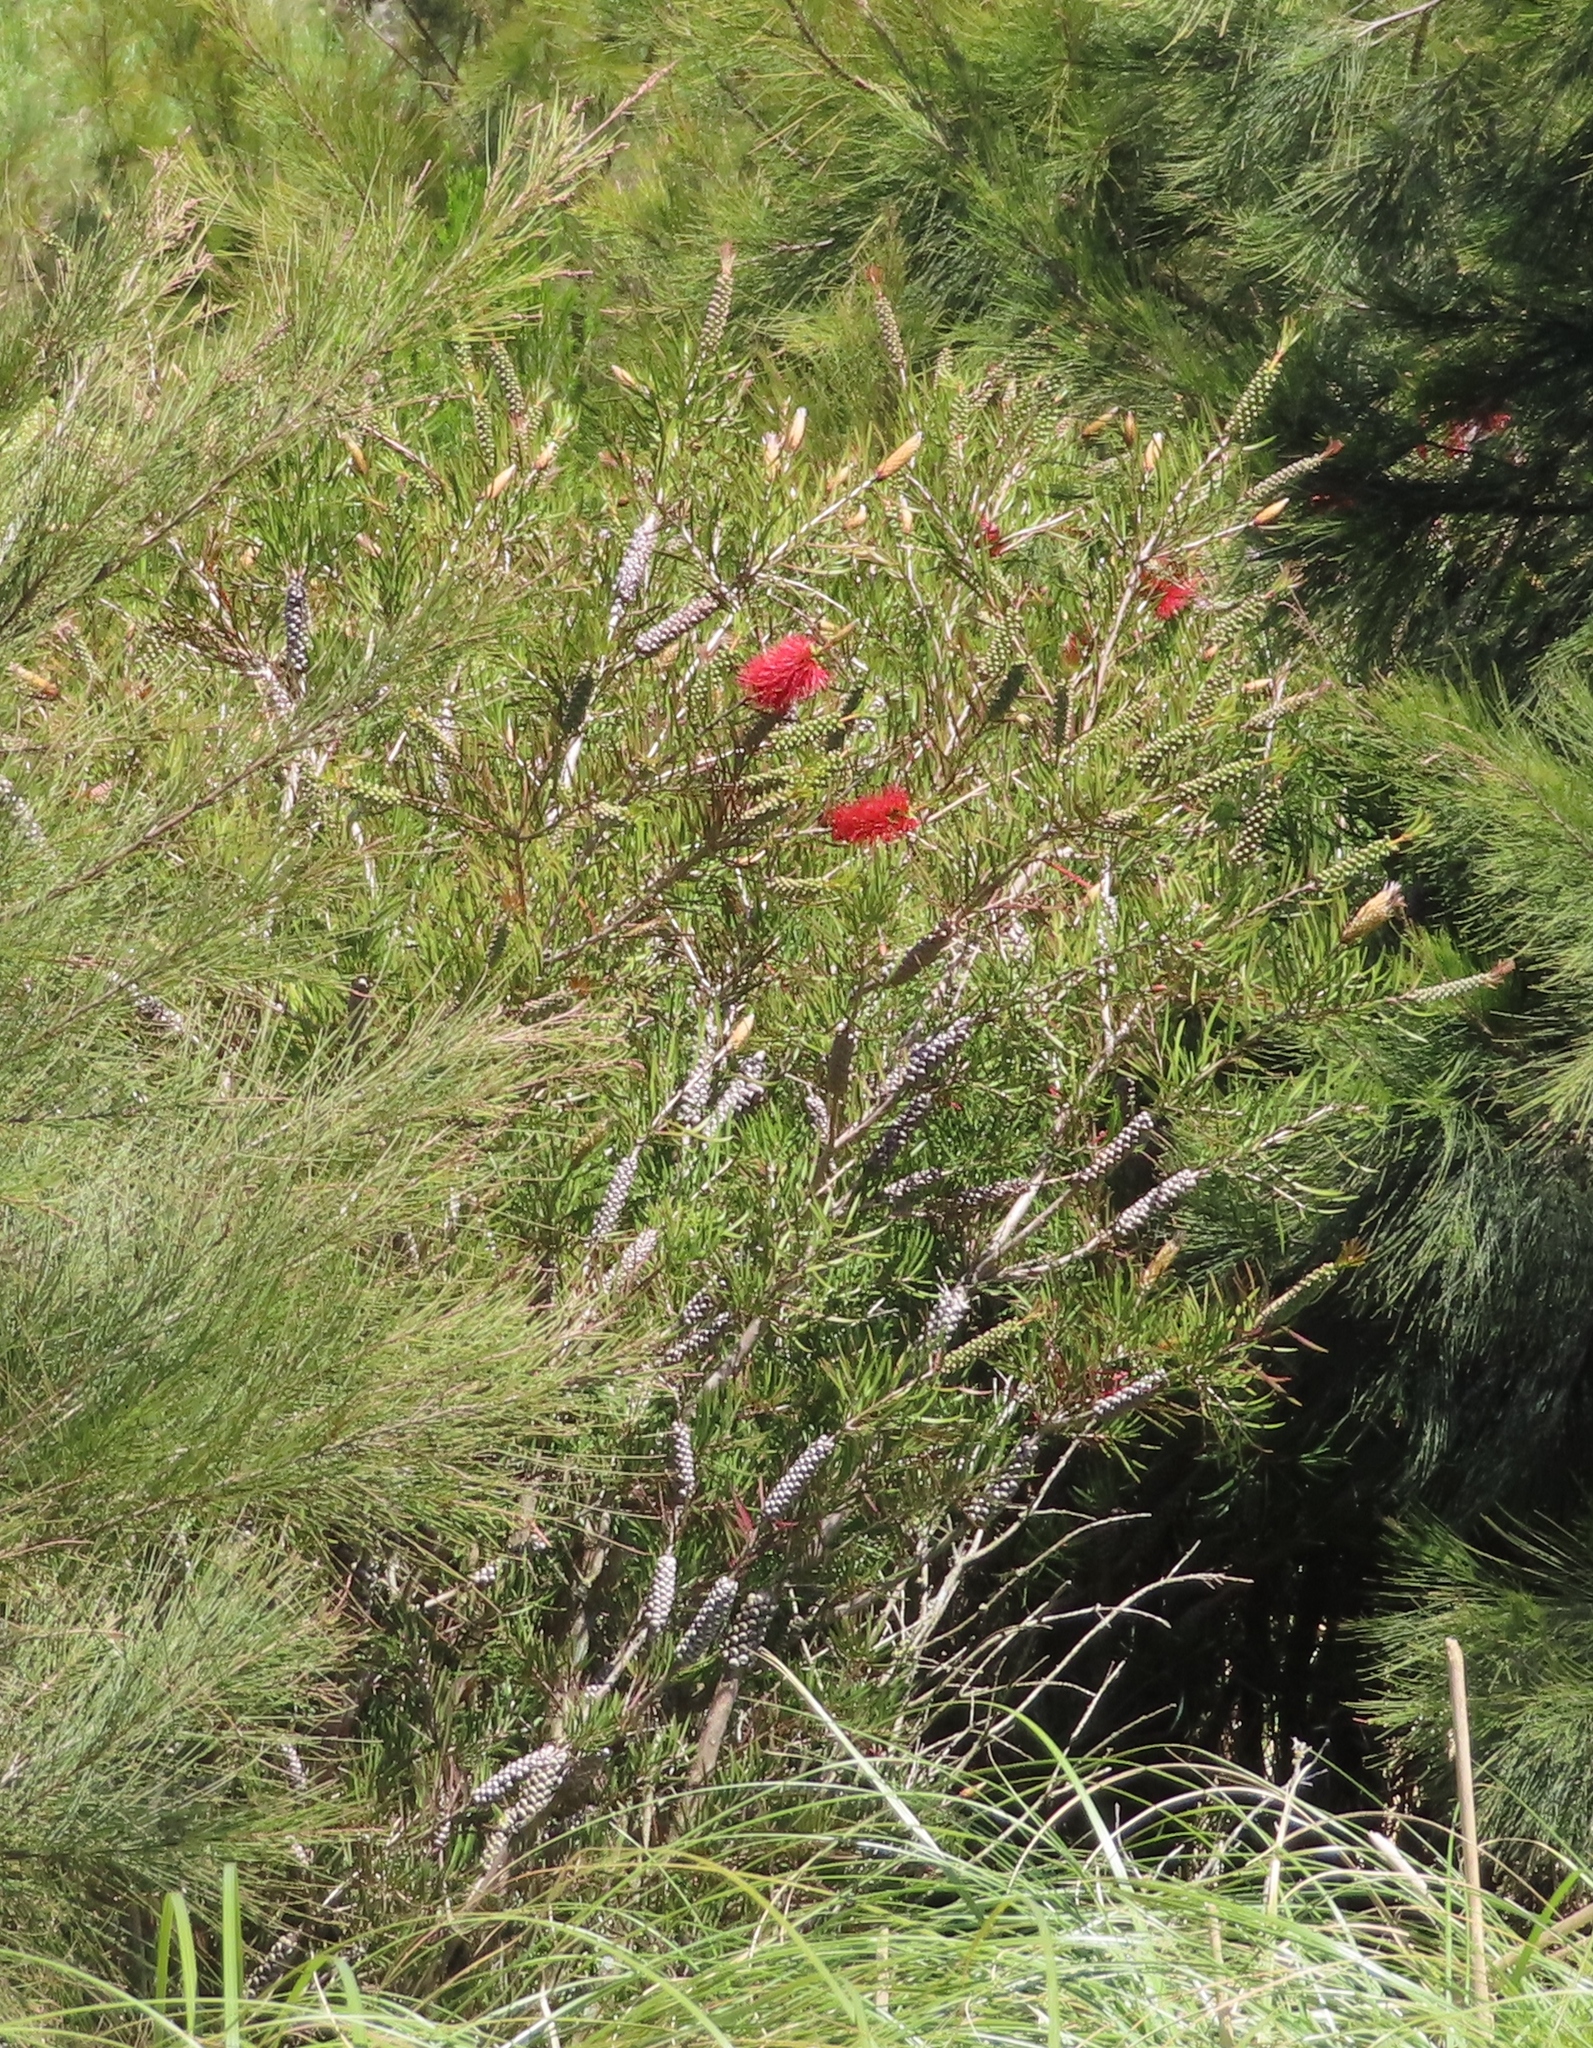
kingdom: Plantae
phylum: Tracheophyta
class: Magnoliopsida
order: Myrtales
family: Myrtaceae
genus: Callistemon
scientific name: Callistemon linearis
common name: Narrow-leaf bottlebrush
